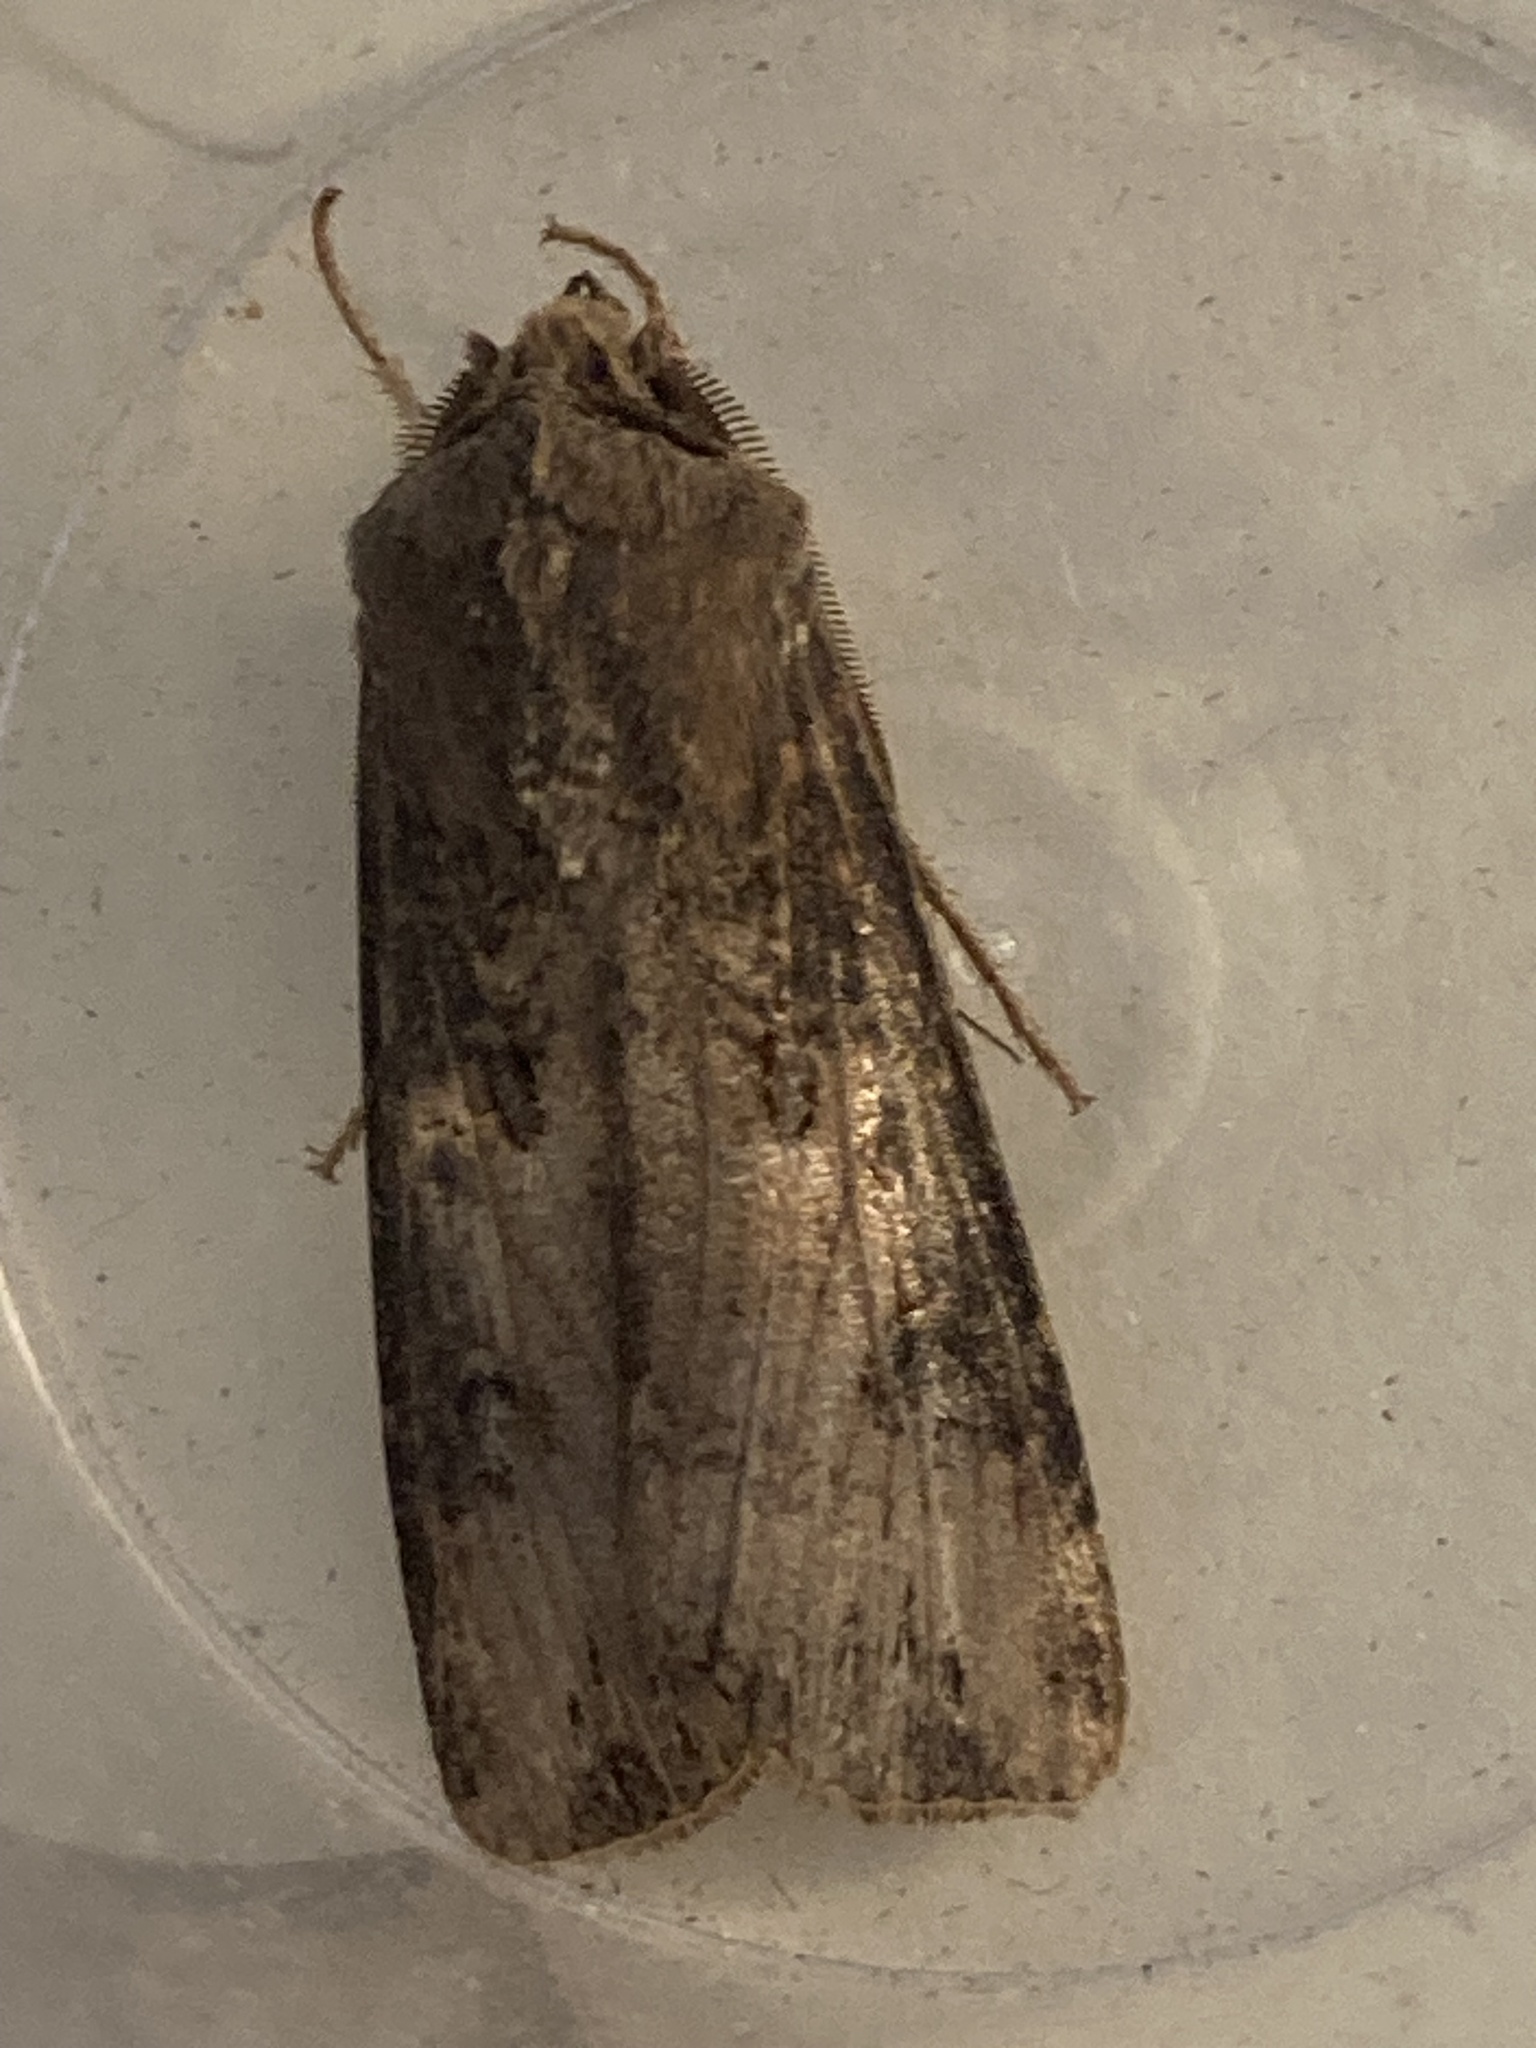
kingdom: Animalia
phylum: Arthropoda
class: Insecta
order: Lepidoptera
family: Noctuidae
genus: Agrotis
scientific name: Agrotis ipsilon
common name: Dark sword-grass
